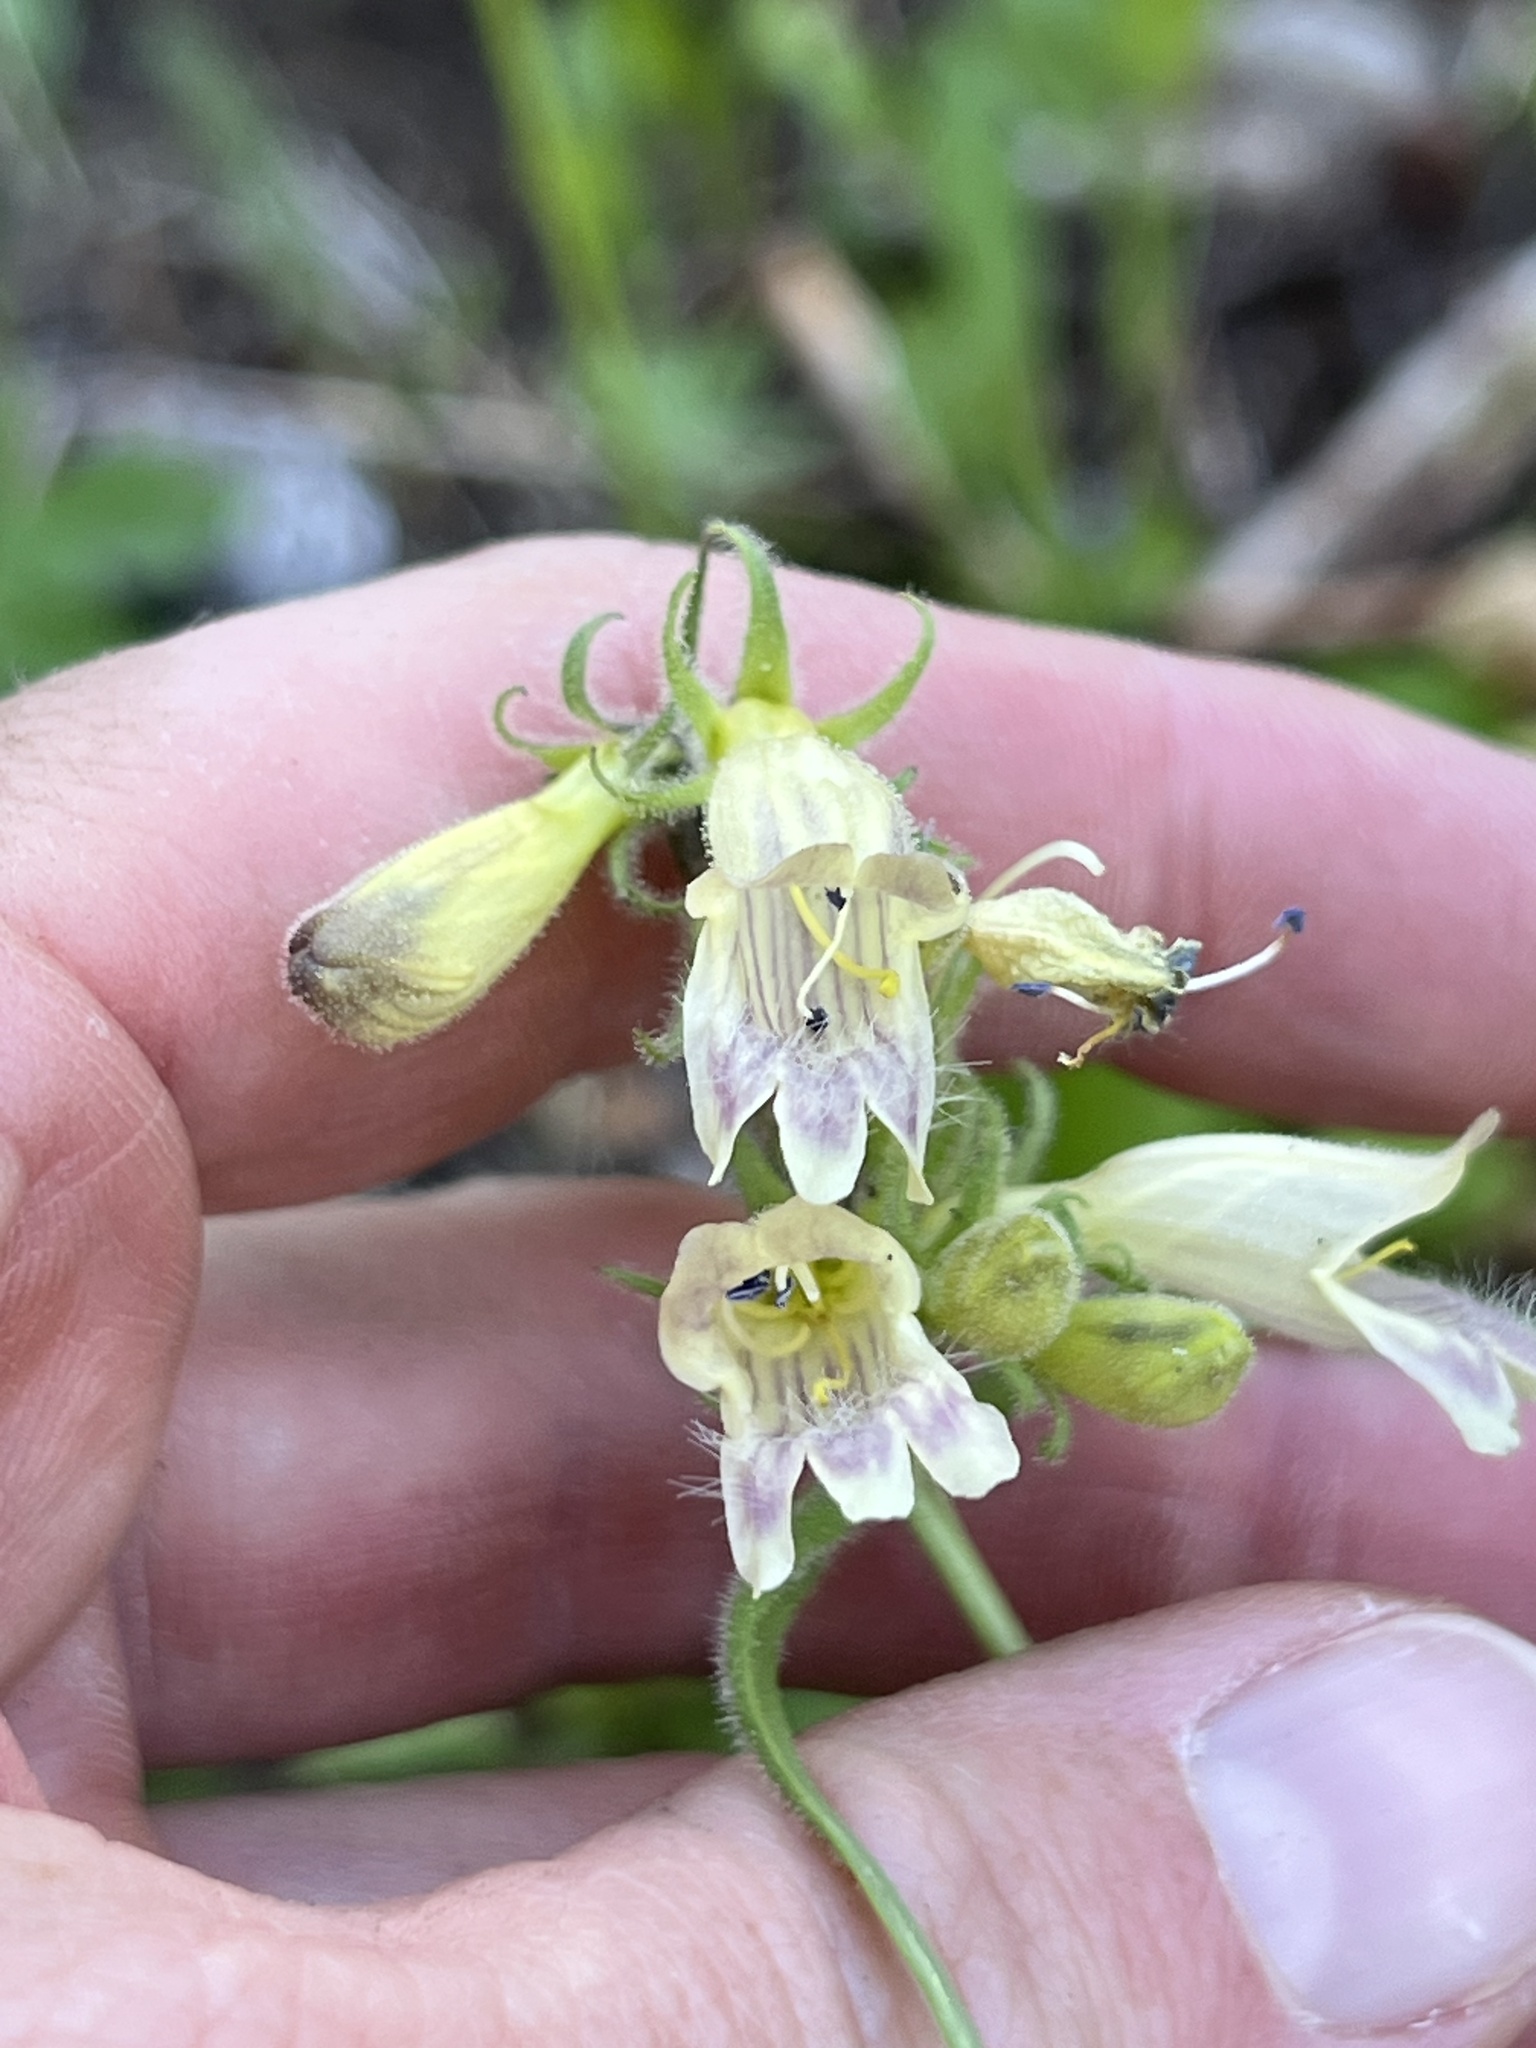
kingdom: Plantae
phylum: Tracheophyta
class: Magnoliopsida
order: Lamiales
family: Plantaginaceae
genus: Penstemon
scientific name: Penstemon whippleanus
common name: Whipple's penstemon
